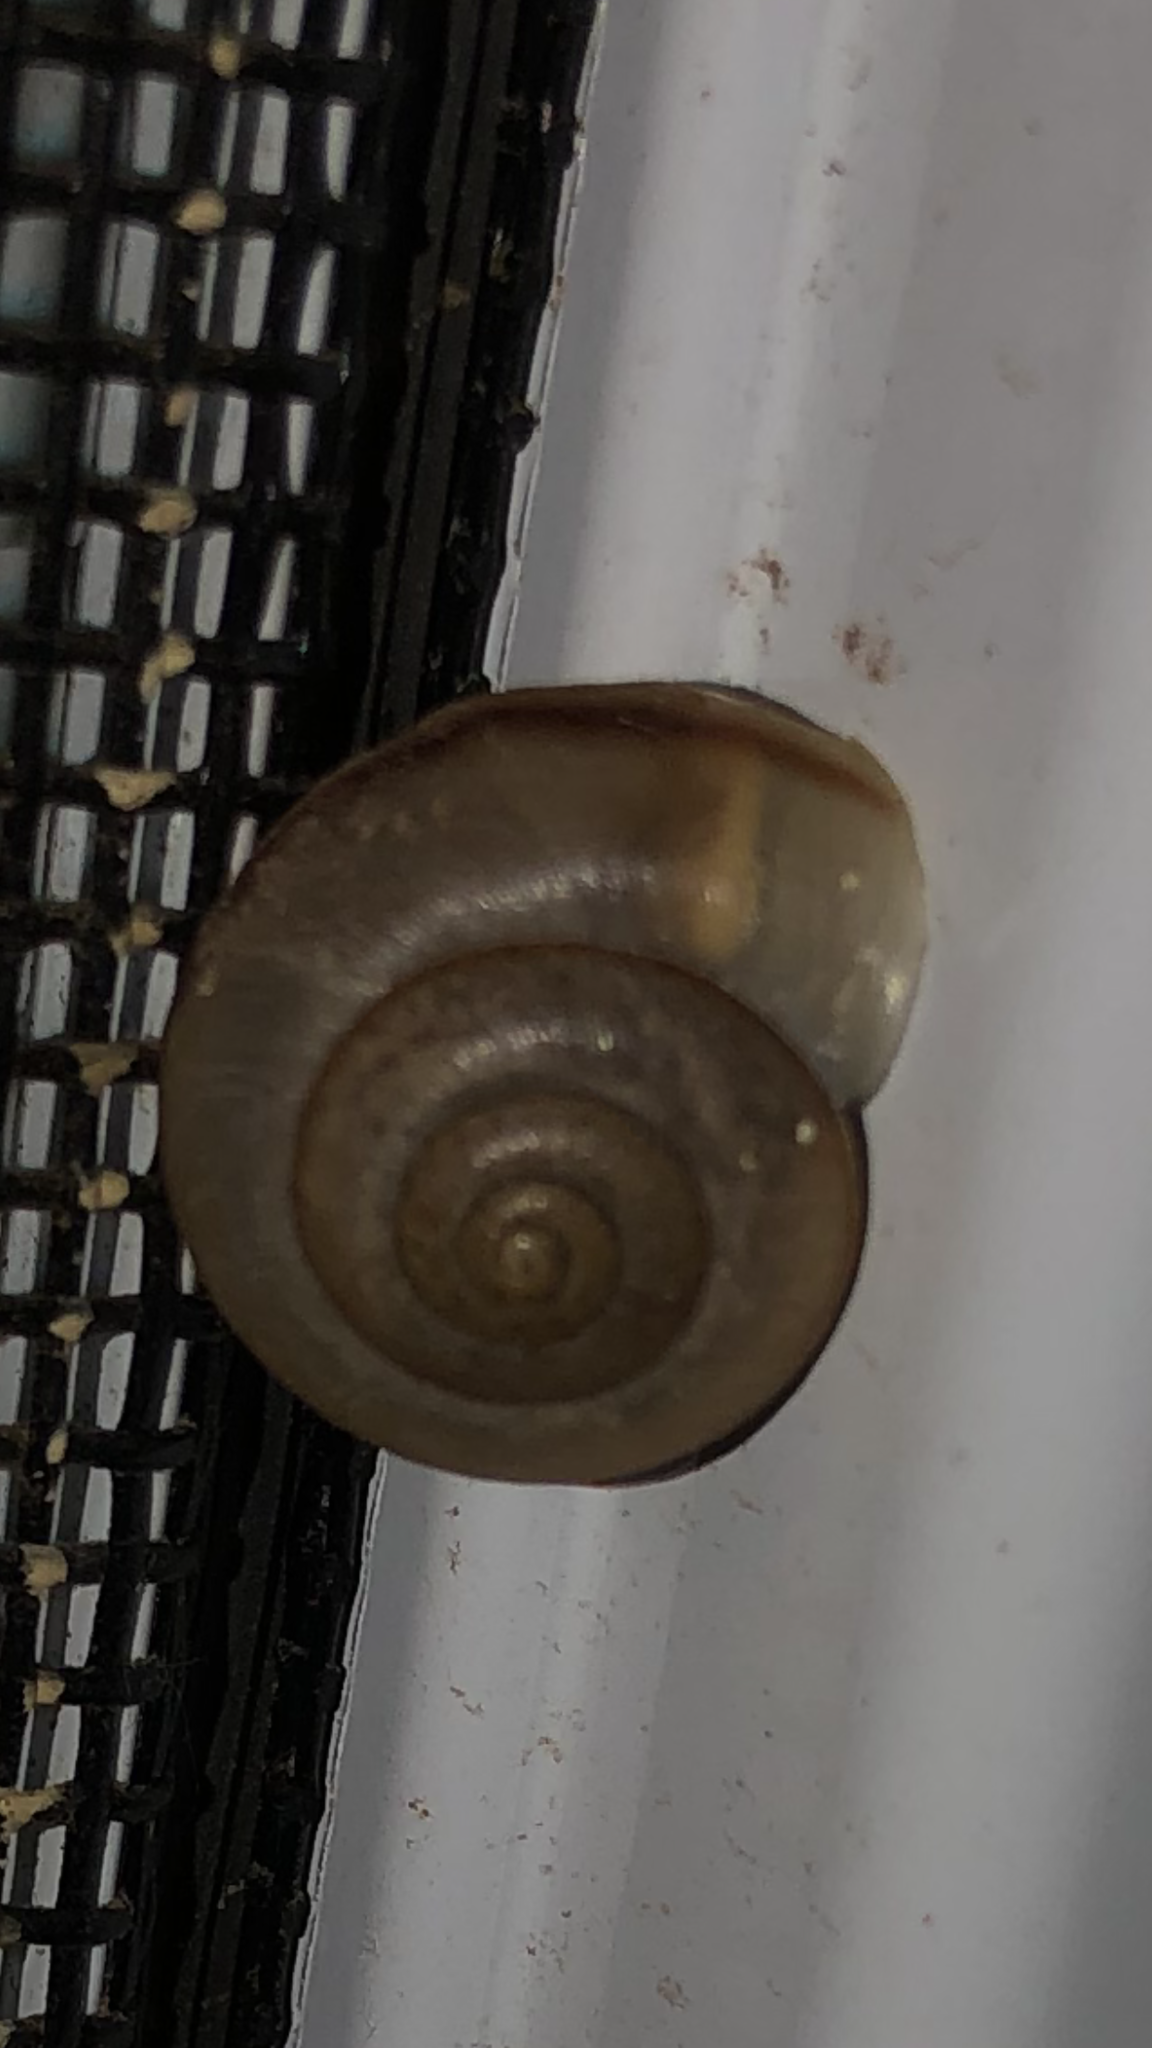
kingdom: Animalia
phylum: Mollusca
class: Gastropoda
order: Stylommatophora
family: Camaenidae
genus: Bradybaena
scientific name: Bradybaena similaris
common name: Asian trampsnail
